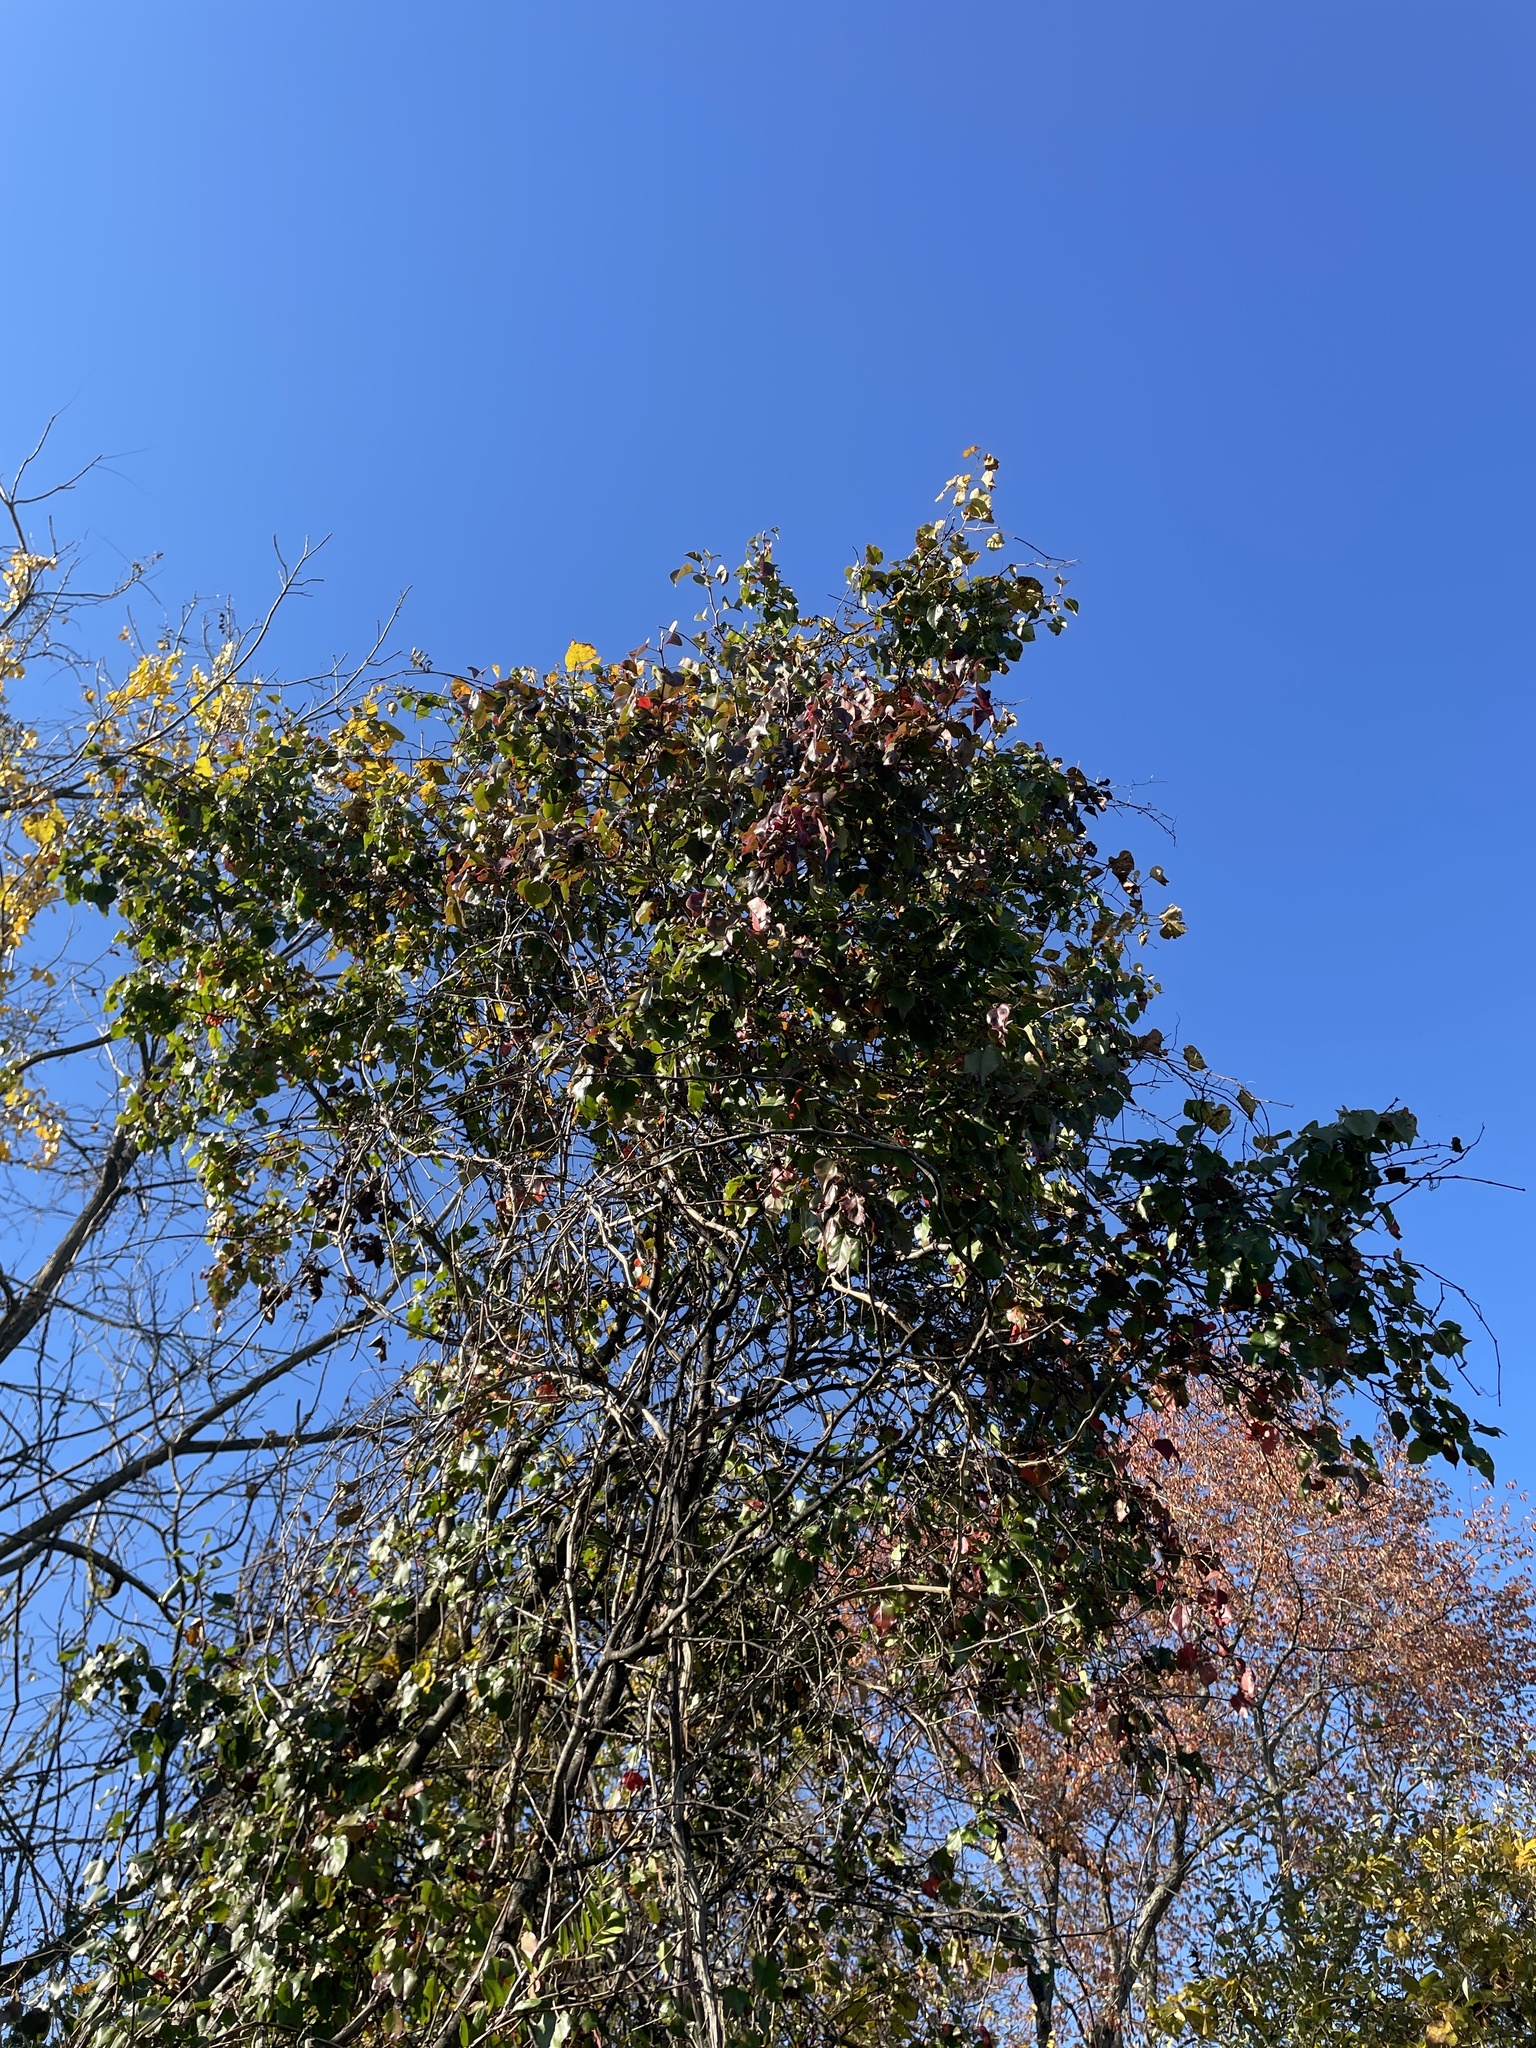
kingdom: Plantae
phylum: Tracheophyta
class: Magnoliopsida
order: Rosales
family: Rosaceae
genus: Pyrus
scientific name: Pyrus calleryana
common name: Callery pear
